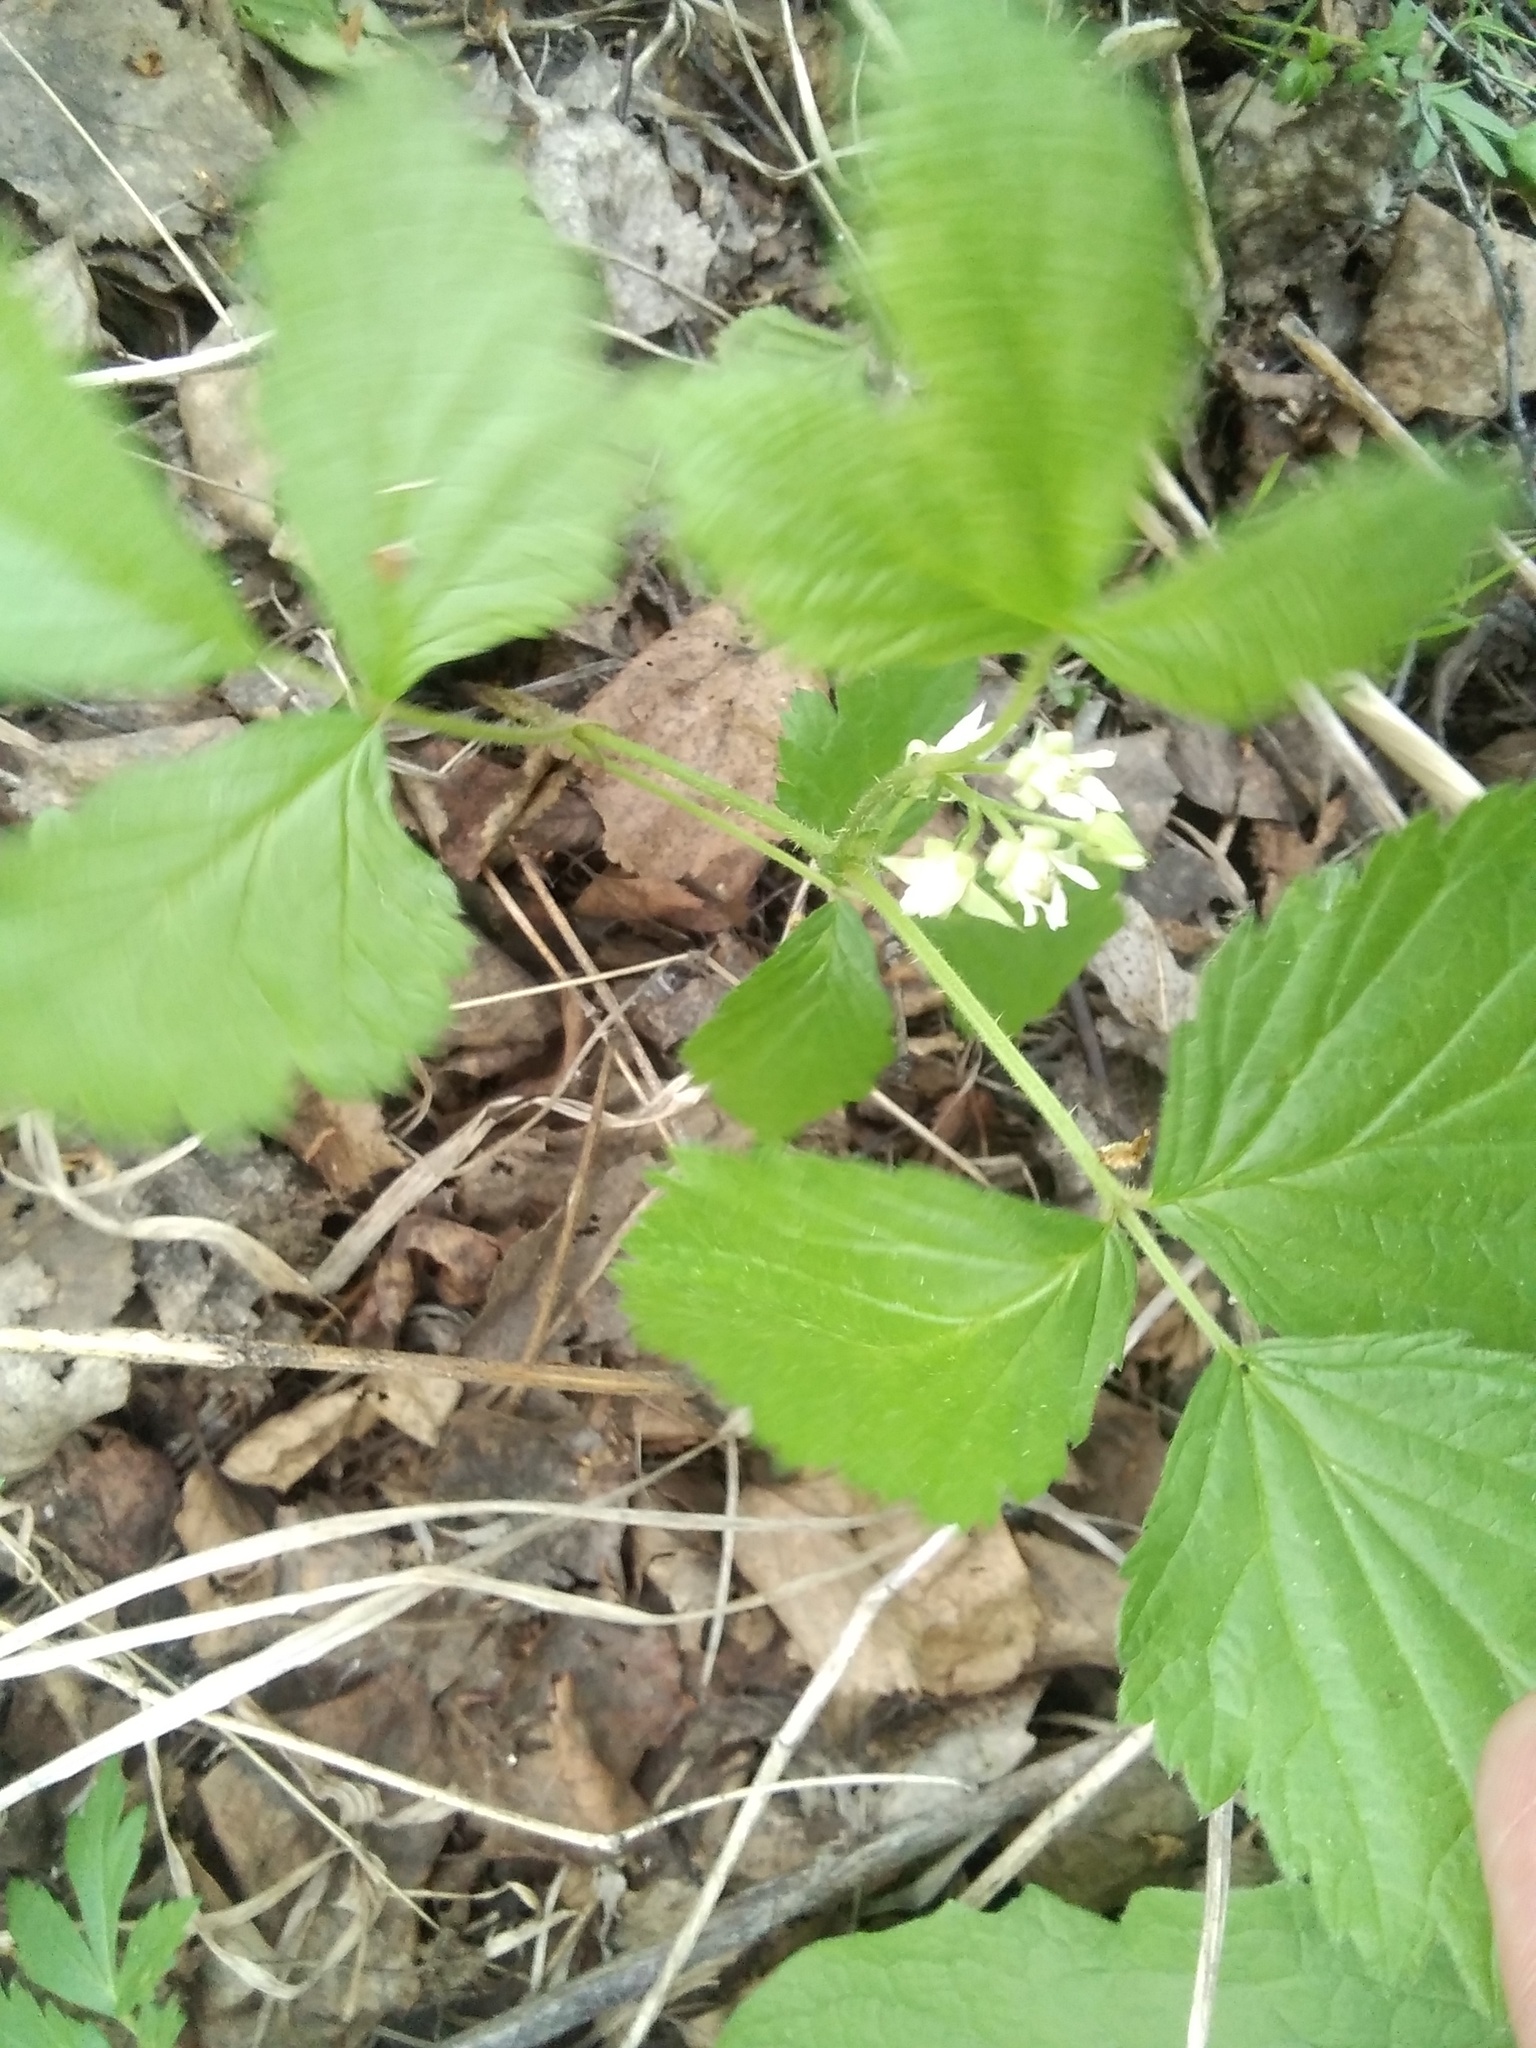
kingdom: Plantae
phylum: Tracheophyta
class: Magnoliopsida
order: Rosales
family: Rosaceae
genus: Rubus
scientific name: Rubus saxatilis
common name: Stone bramble
